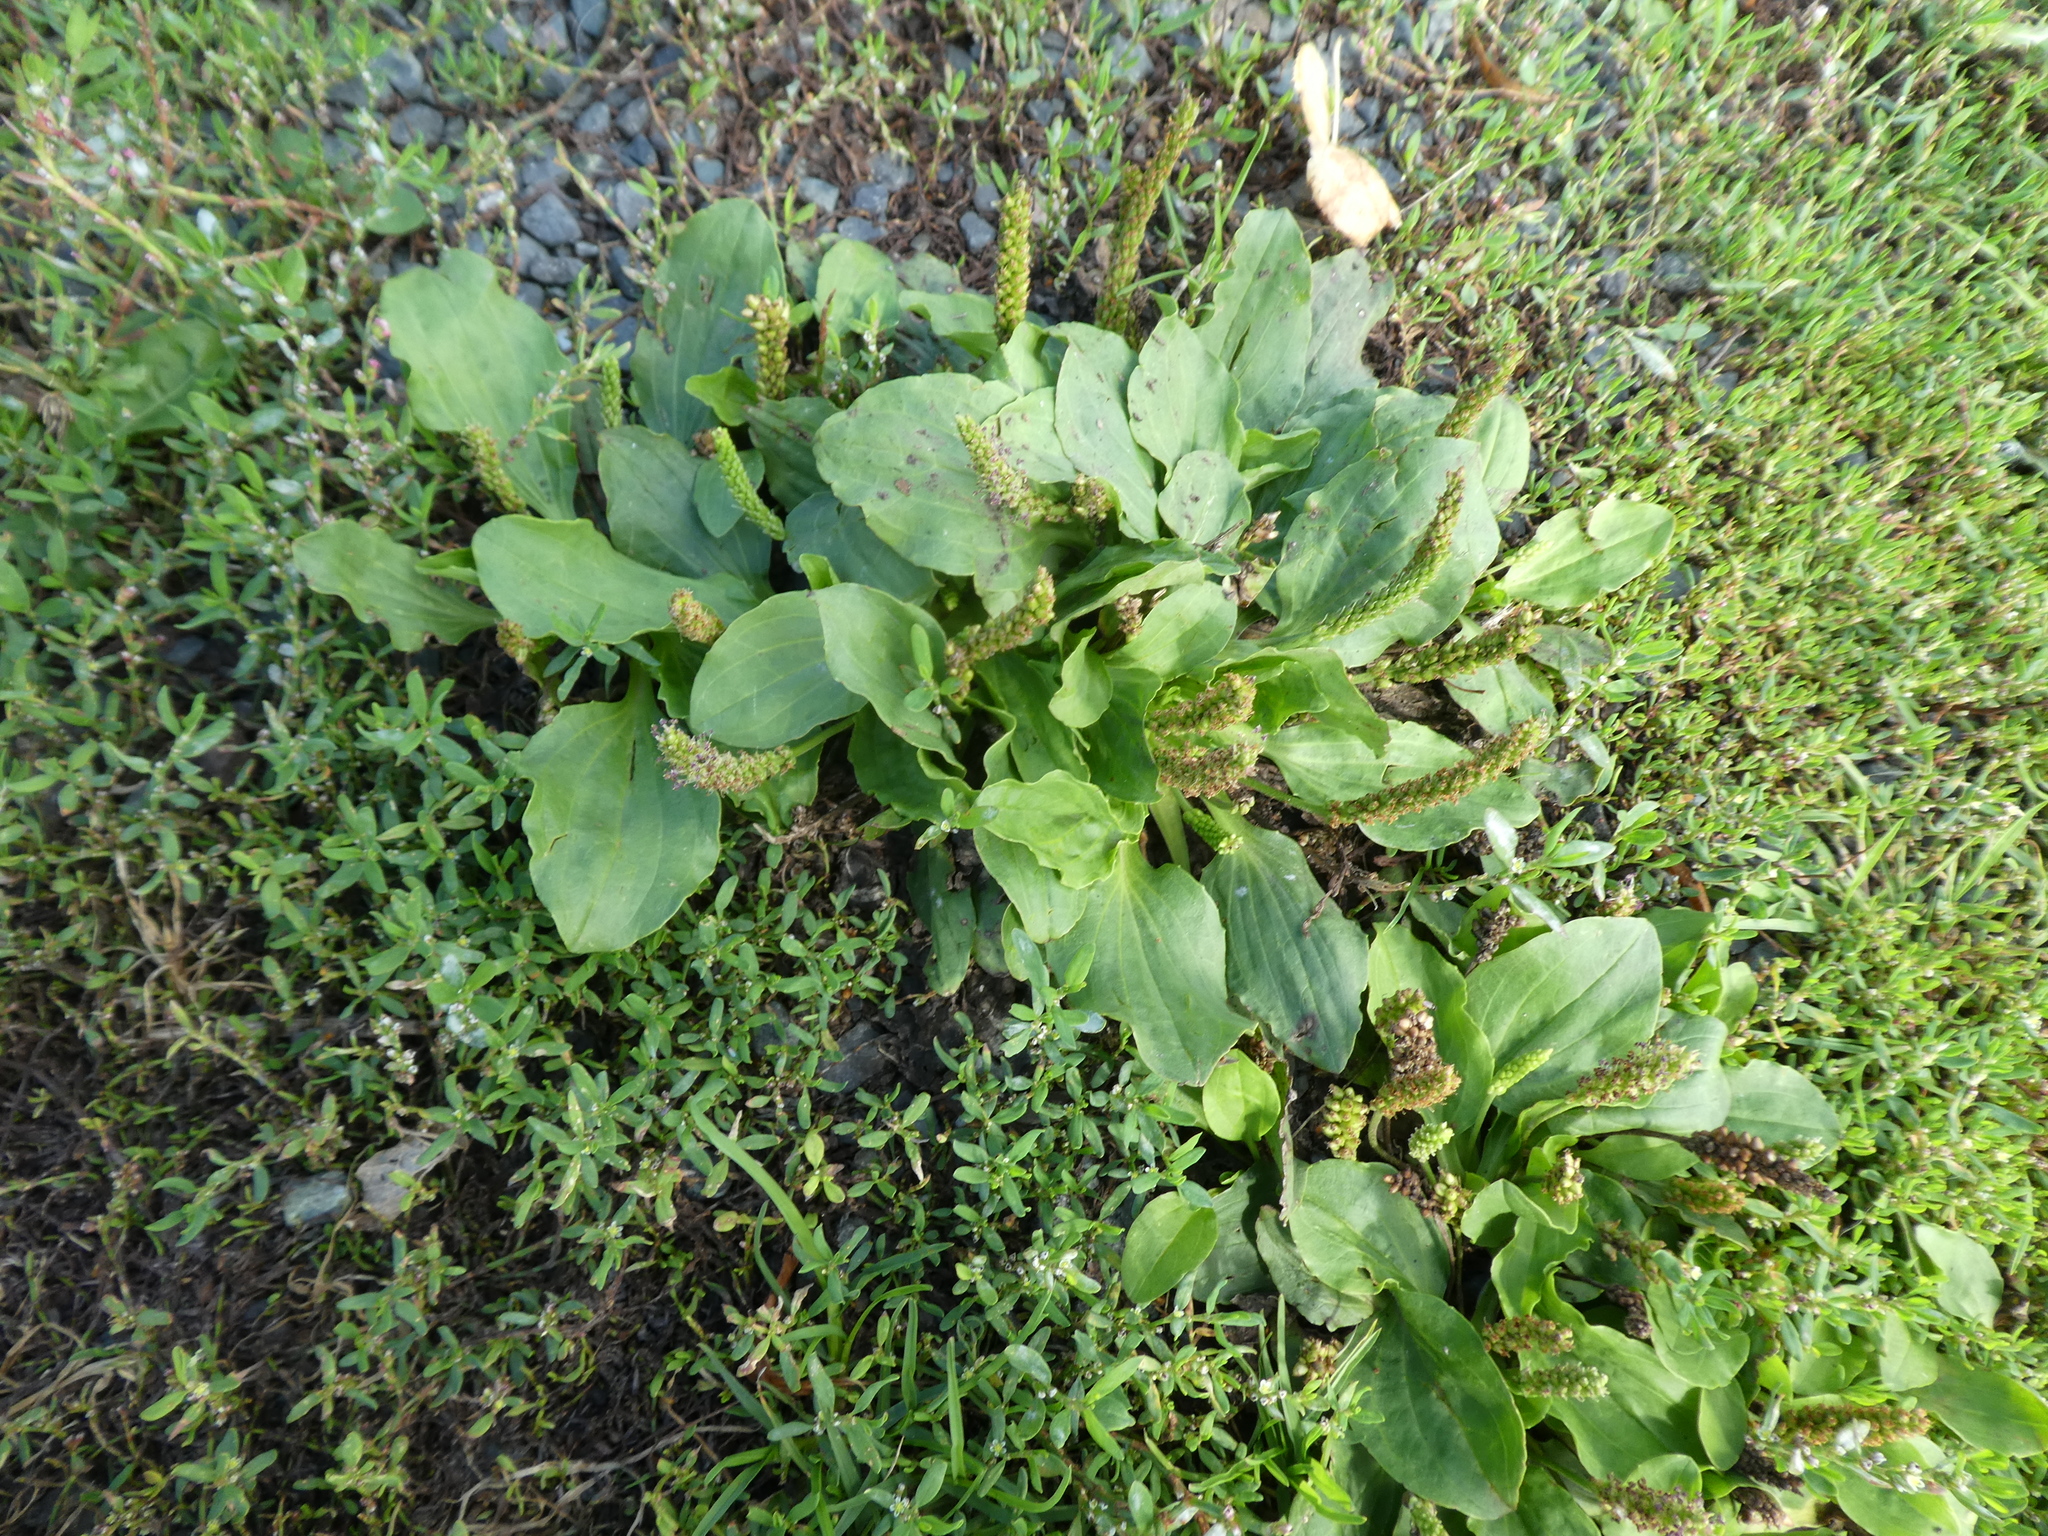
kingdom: Plantae
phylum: Tracheophyta
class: Magnoliopsida
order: Lamiales
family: Plantaginaceae
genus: Plantago
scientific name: Plantago major
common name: Common plantain
